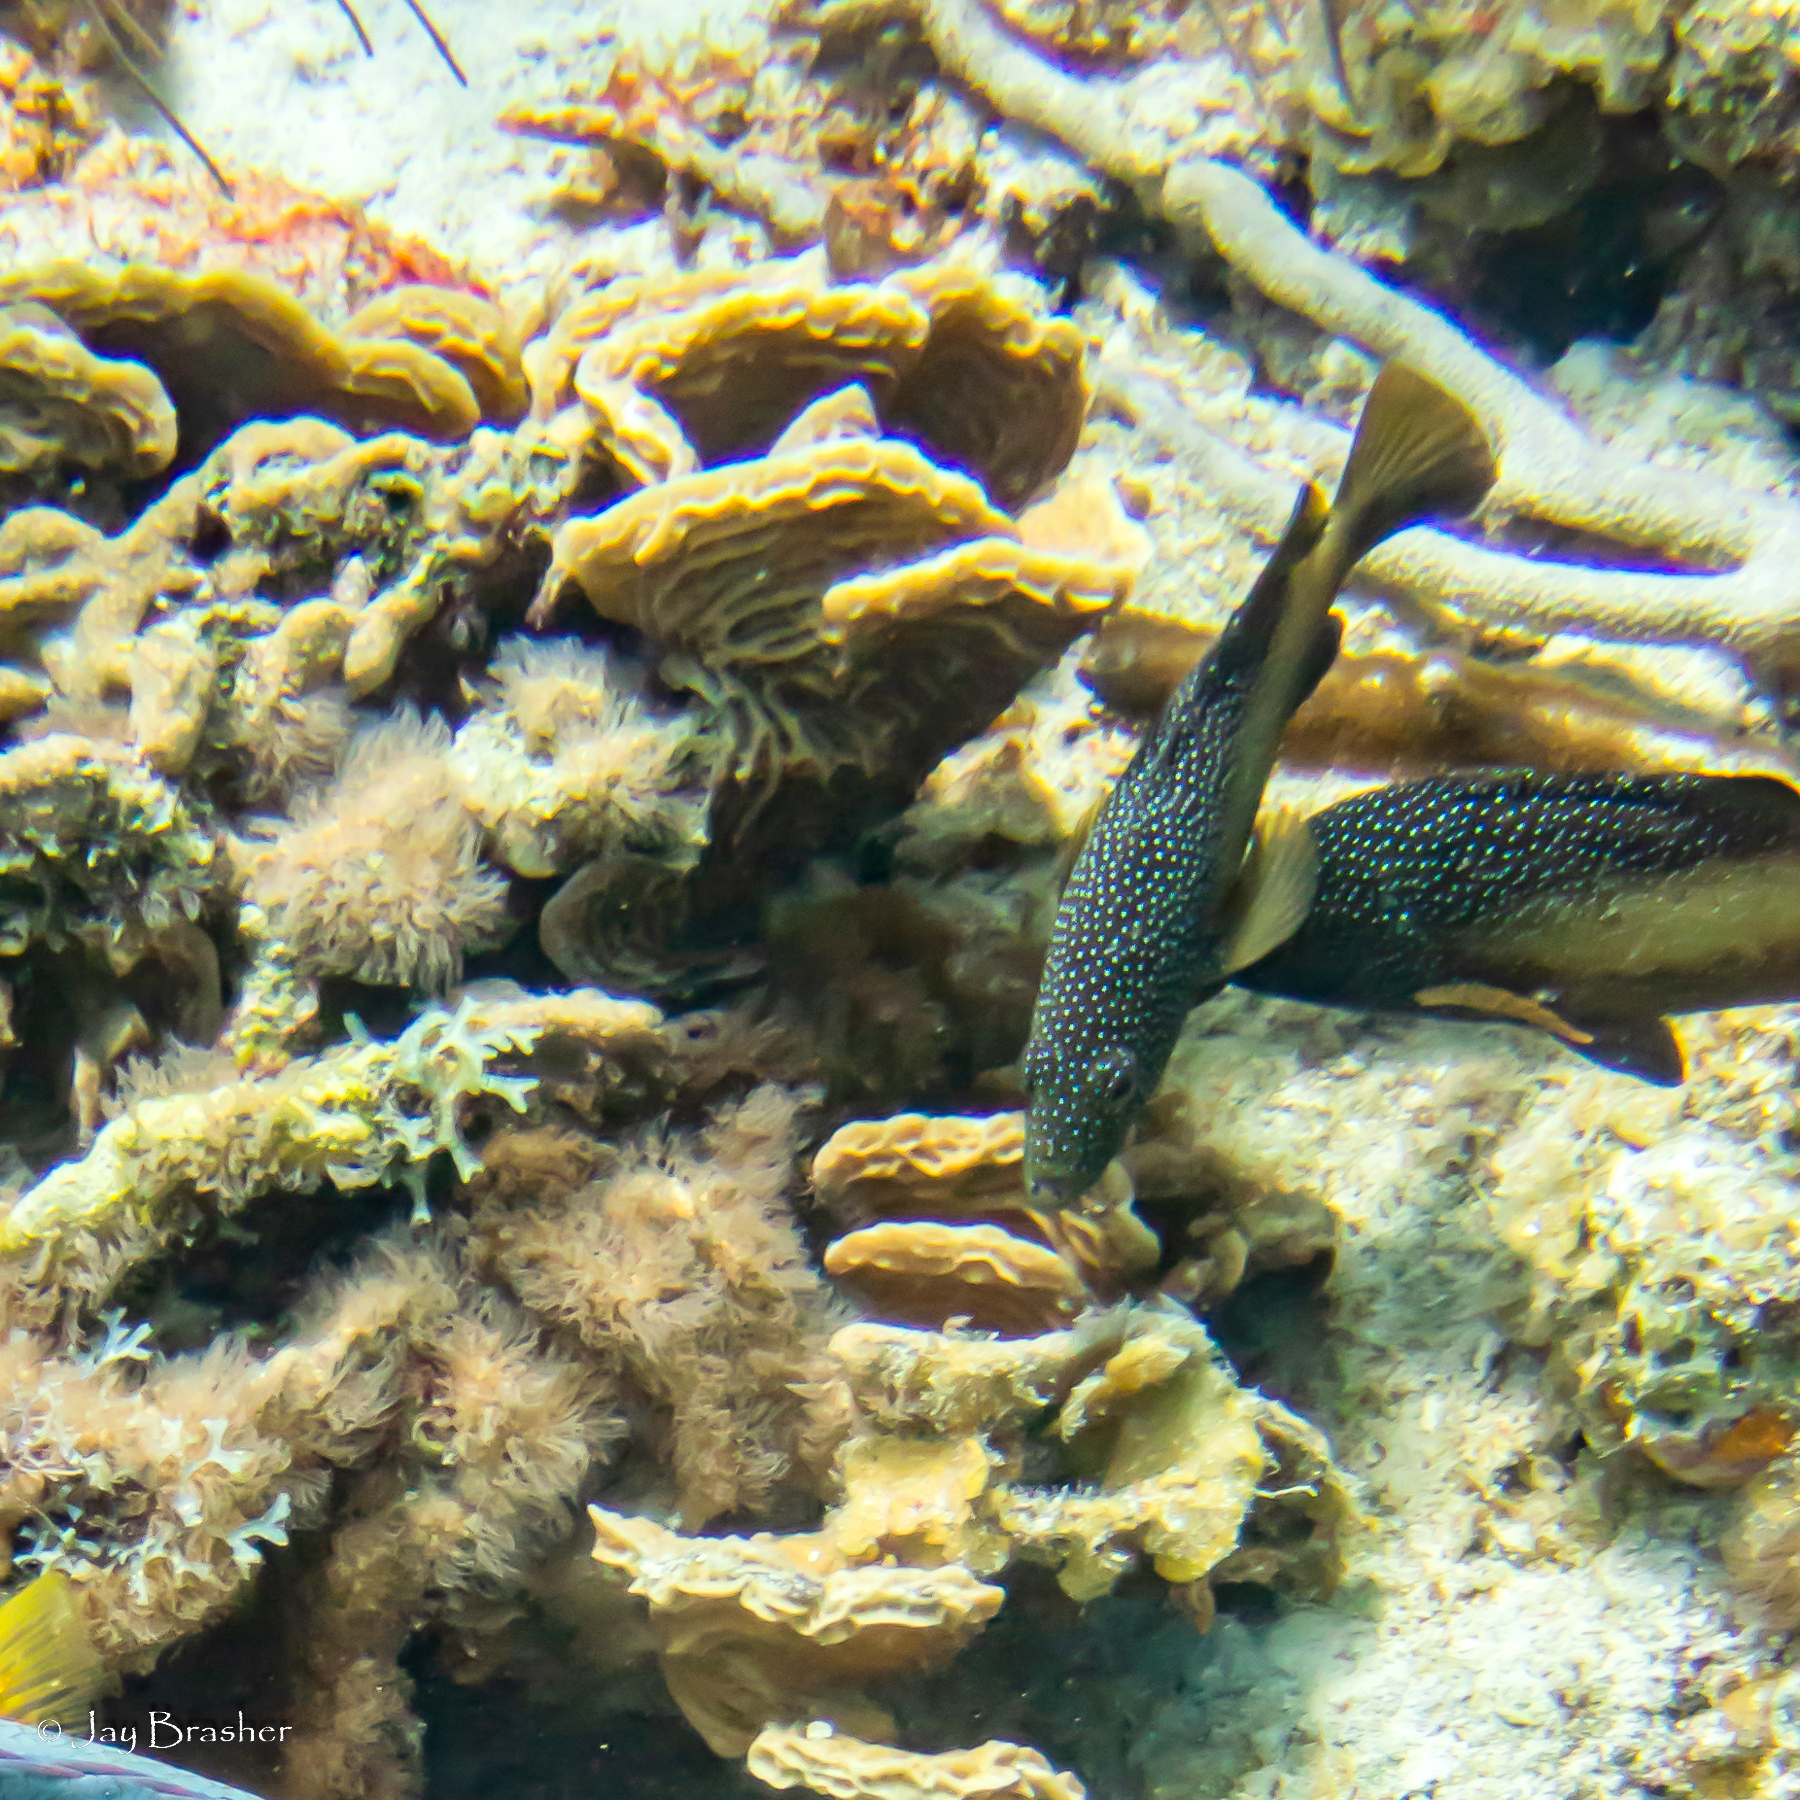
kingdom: Animalia
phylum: Chordata
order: Perciformes
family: Serranidae
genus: Cephalopholis
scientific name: Cephalopholis fulva
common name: Butterfish
